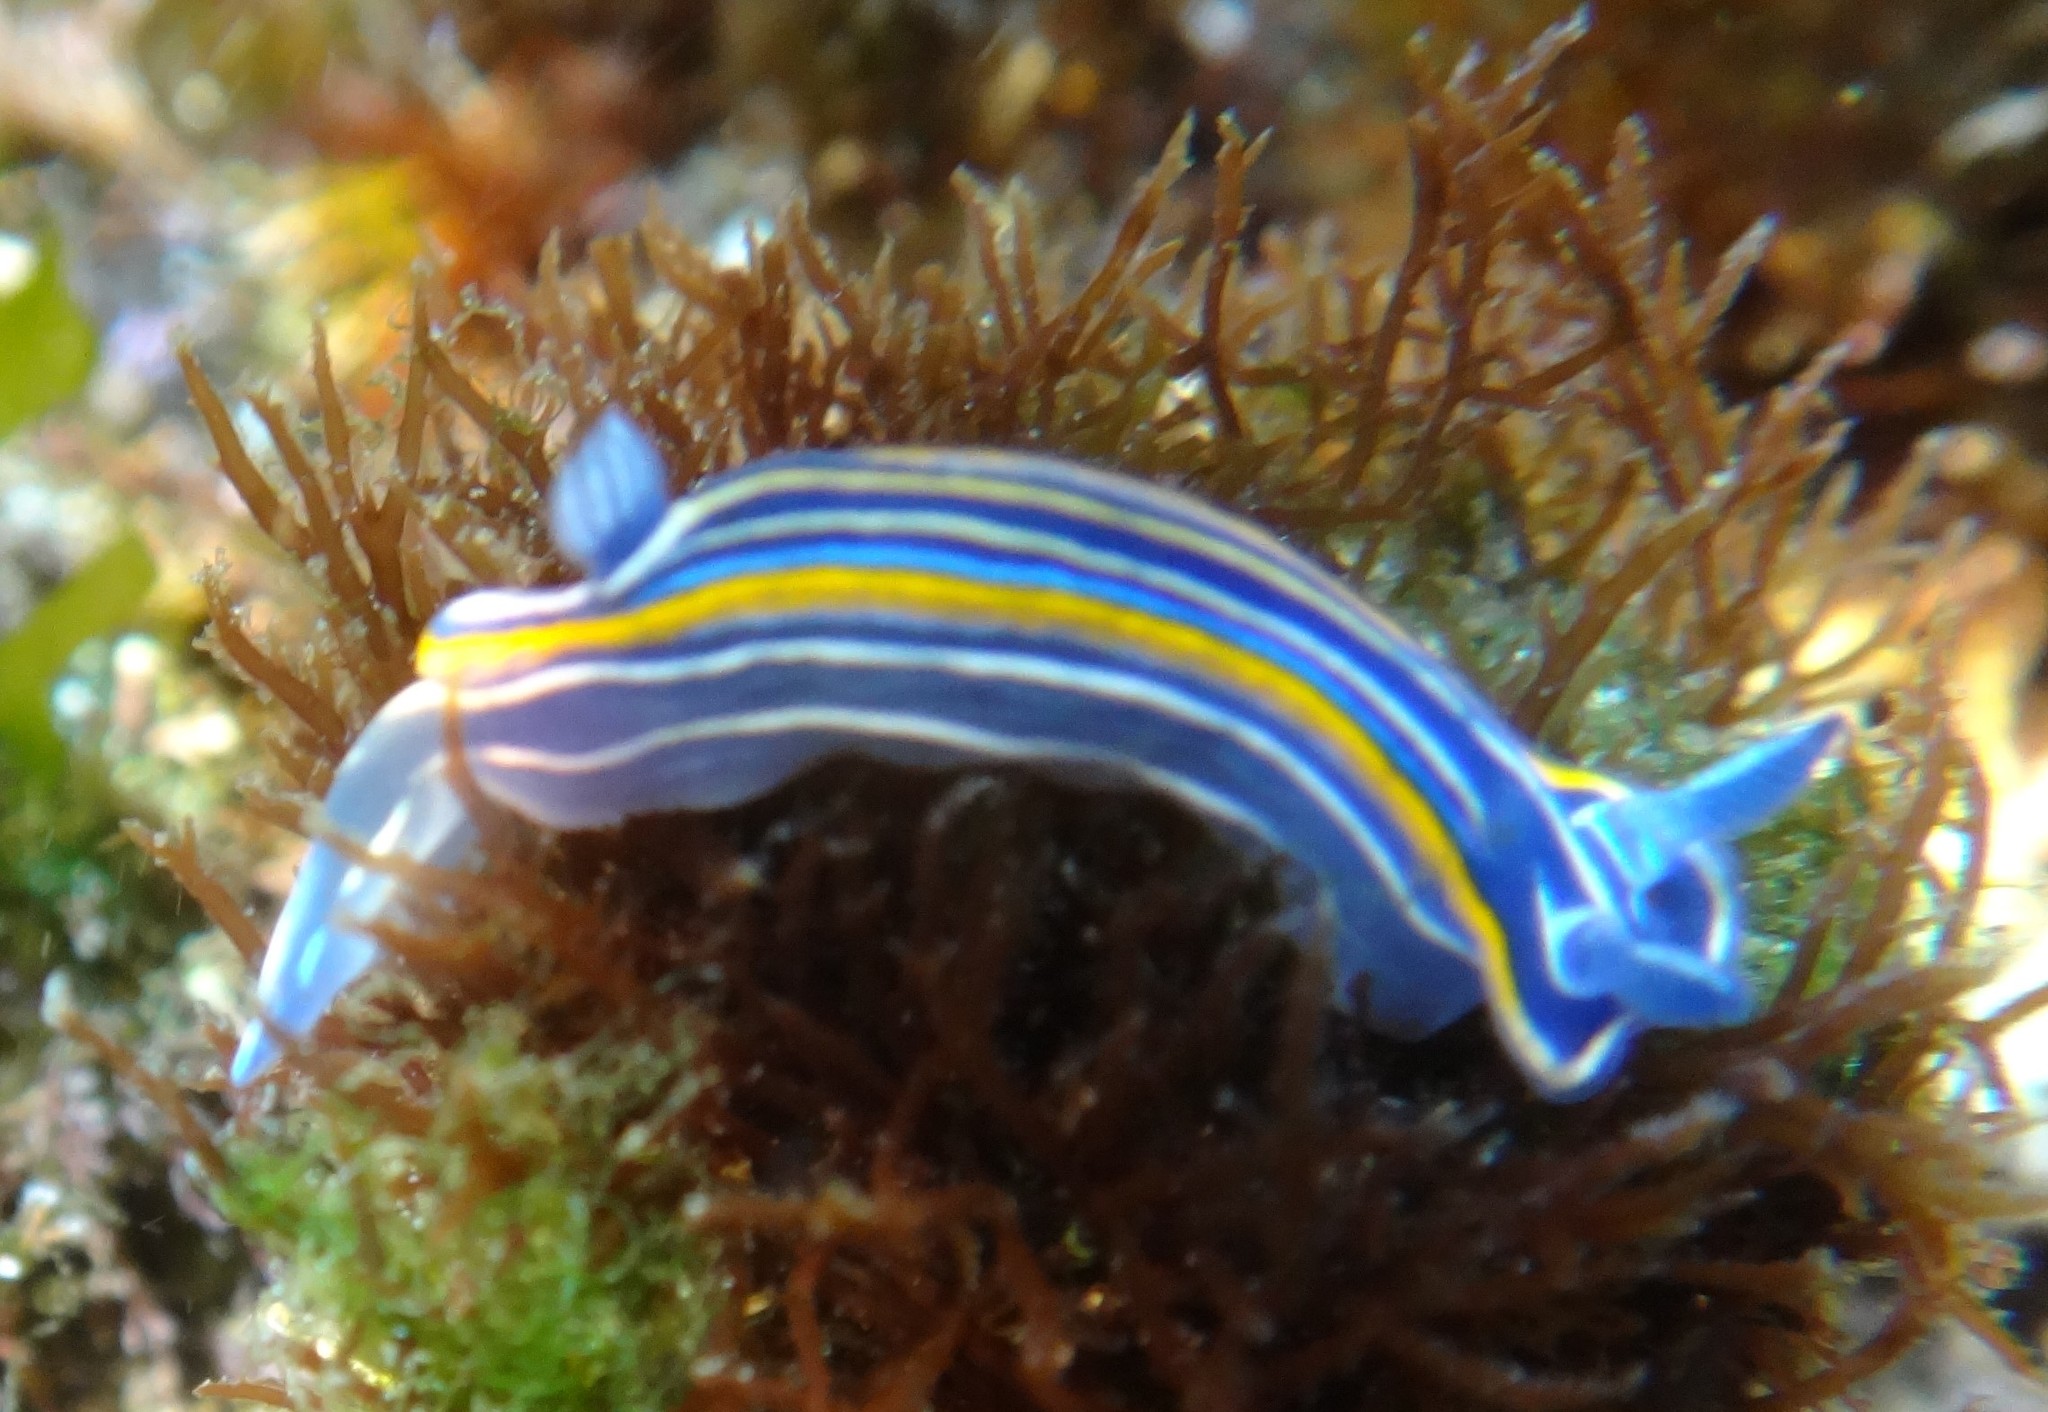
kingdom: Animalia
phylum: Mollusca
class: Gastropoda
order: Nudibranchia
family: Chromodorididae
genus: Felimare
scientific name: Felimare villafranca
